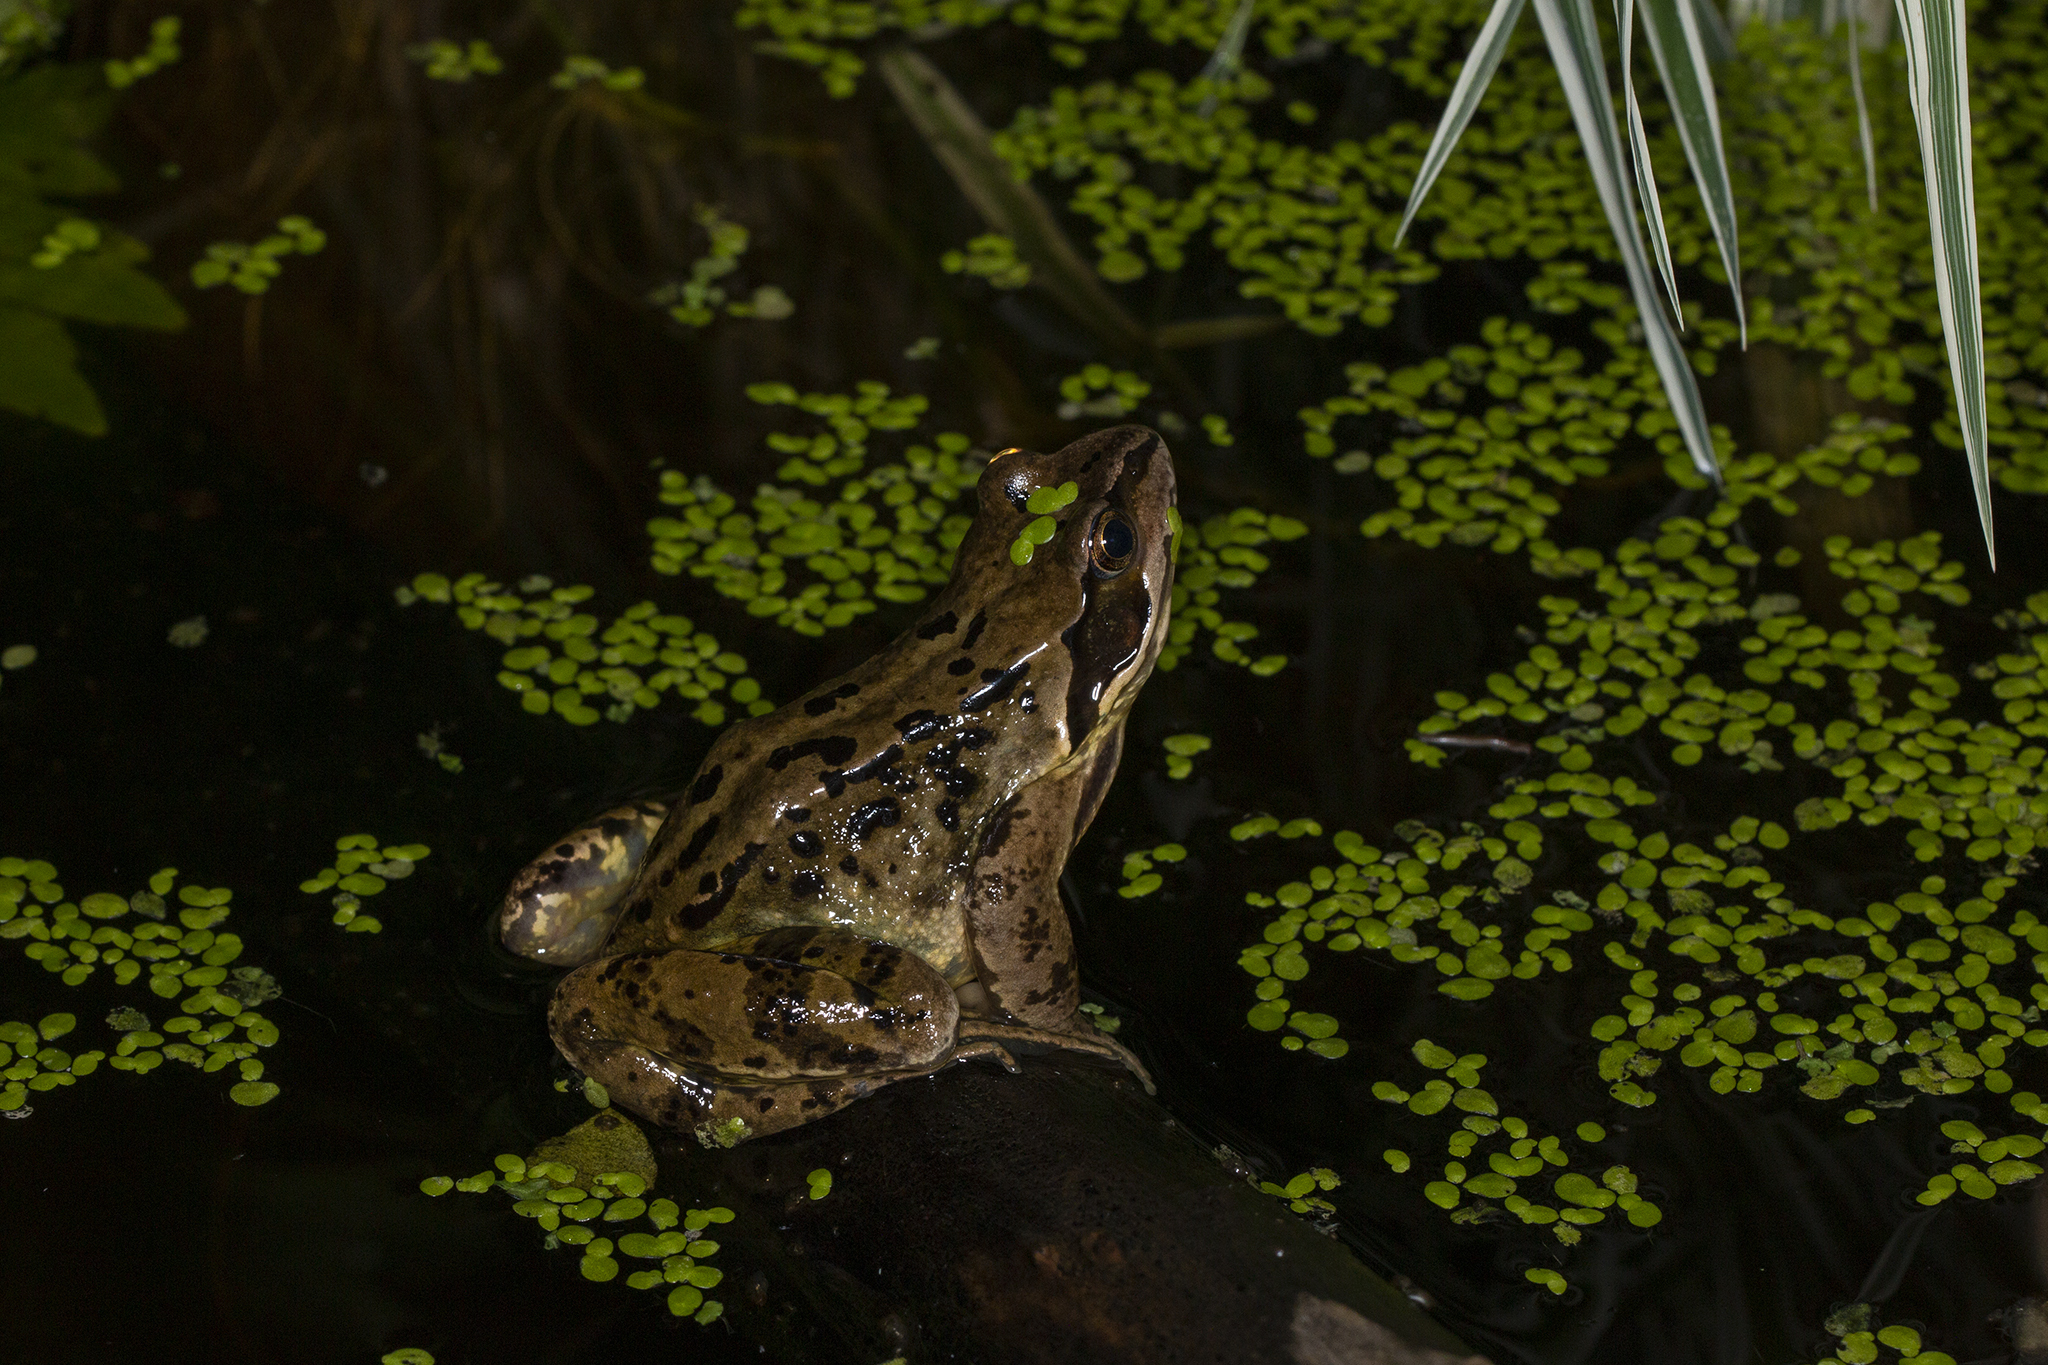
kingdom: Animalia
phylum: Chordata
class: Amphibia
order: Anura
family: Ranidae
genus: Rana
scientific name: Rana temporaria
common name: Common frog
